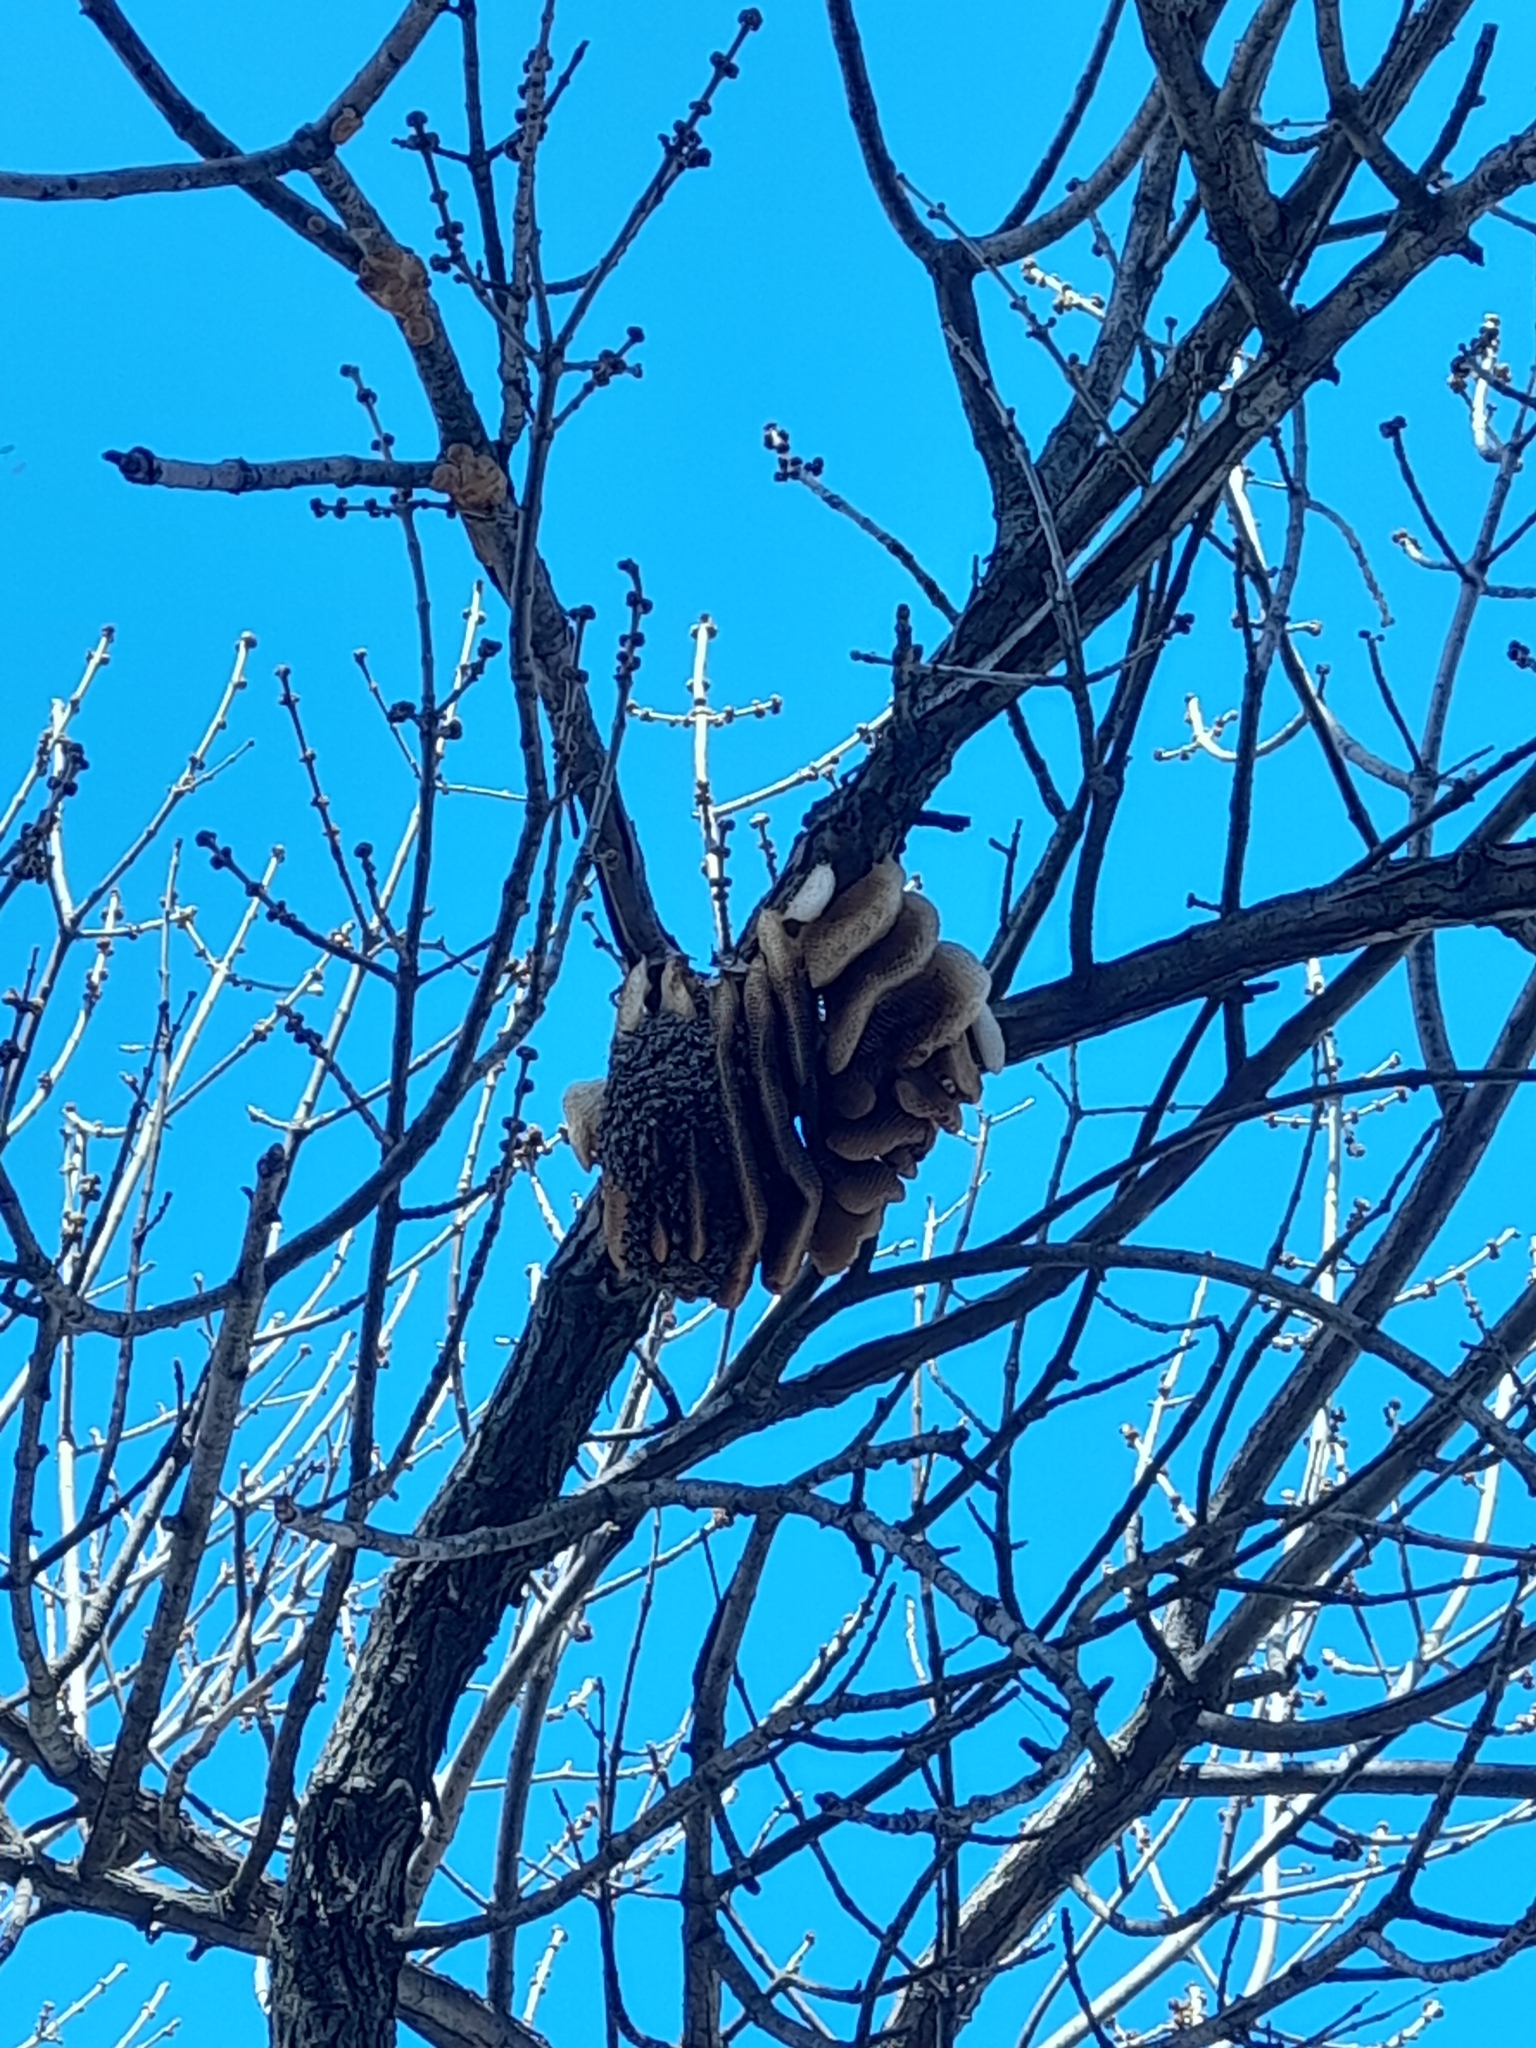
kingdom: Animalia
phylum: Arthropoda
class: Insecta
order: Hymenoptera
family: Apidae
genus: Apis
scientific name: Apis mellifera
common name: Honey bee
